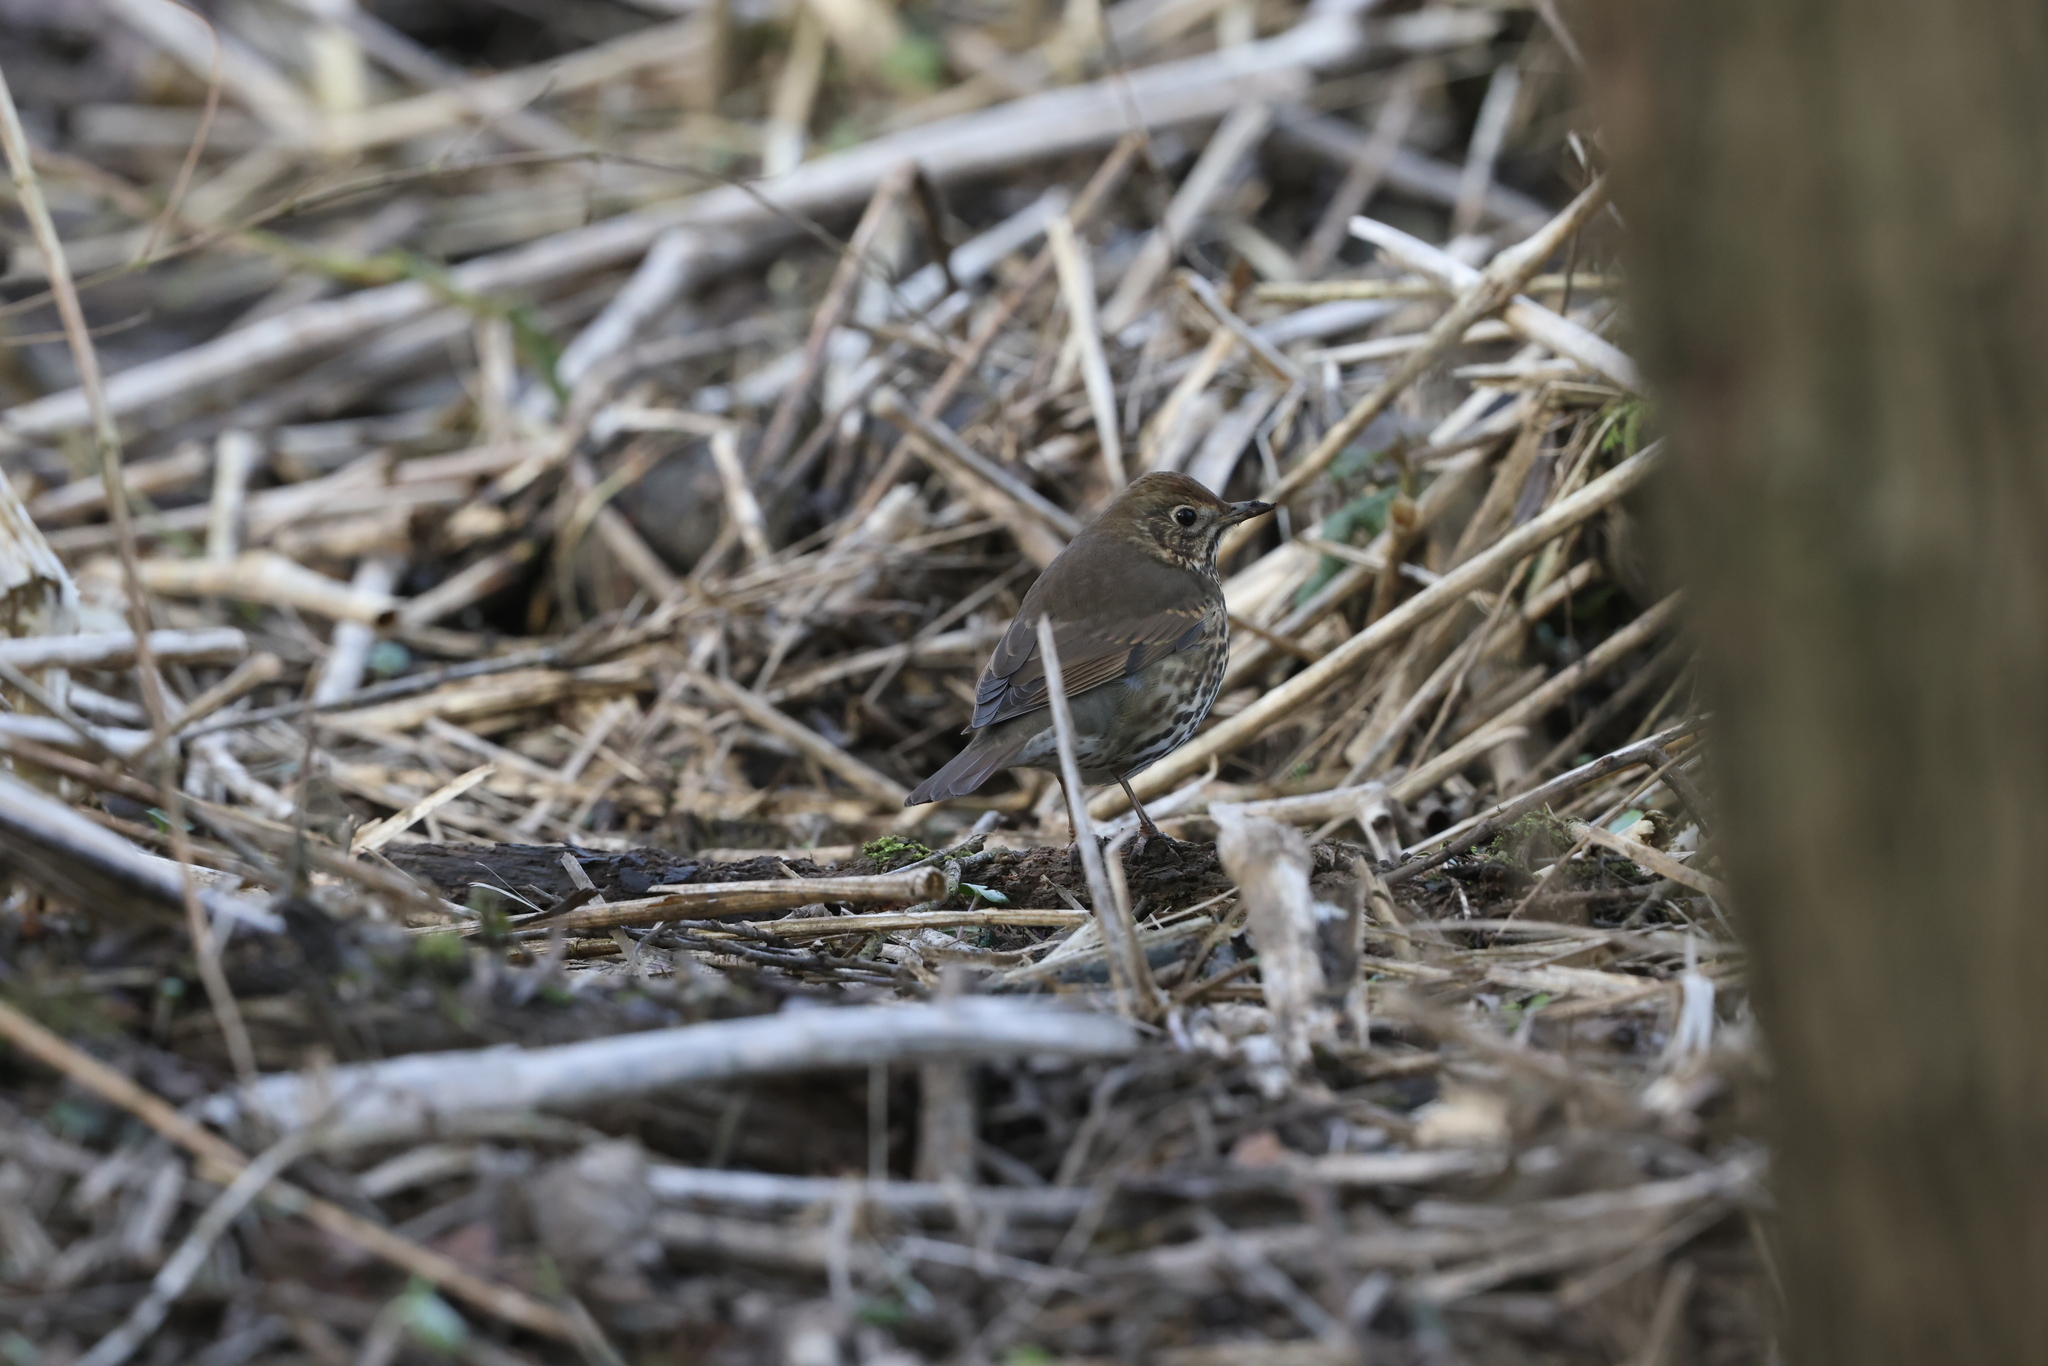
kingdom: Animalia
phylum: Chordata
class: Aves
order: Passeriformes
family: Turdidae
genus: Turdus
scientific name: Turdus philomelos
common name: Song thrush
